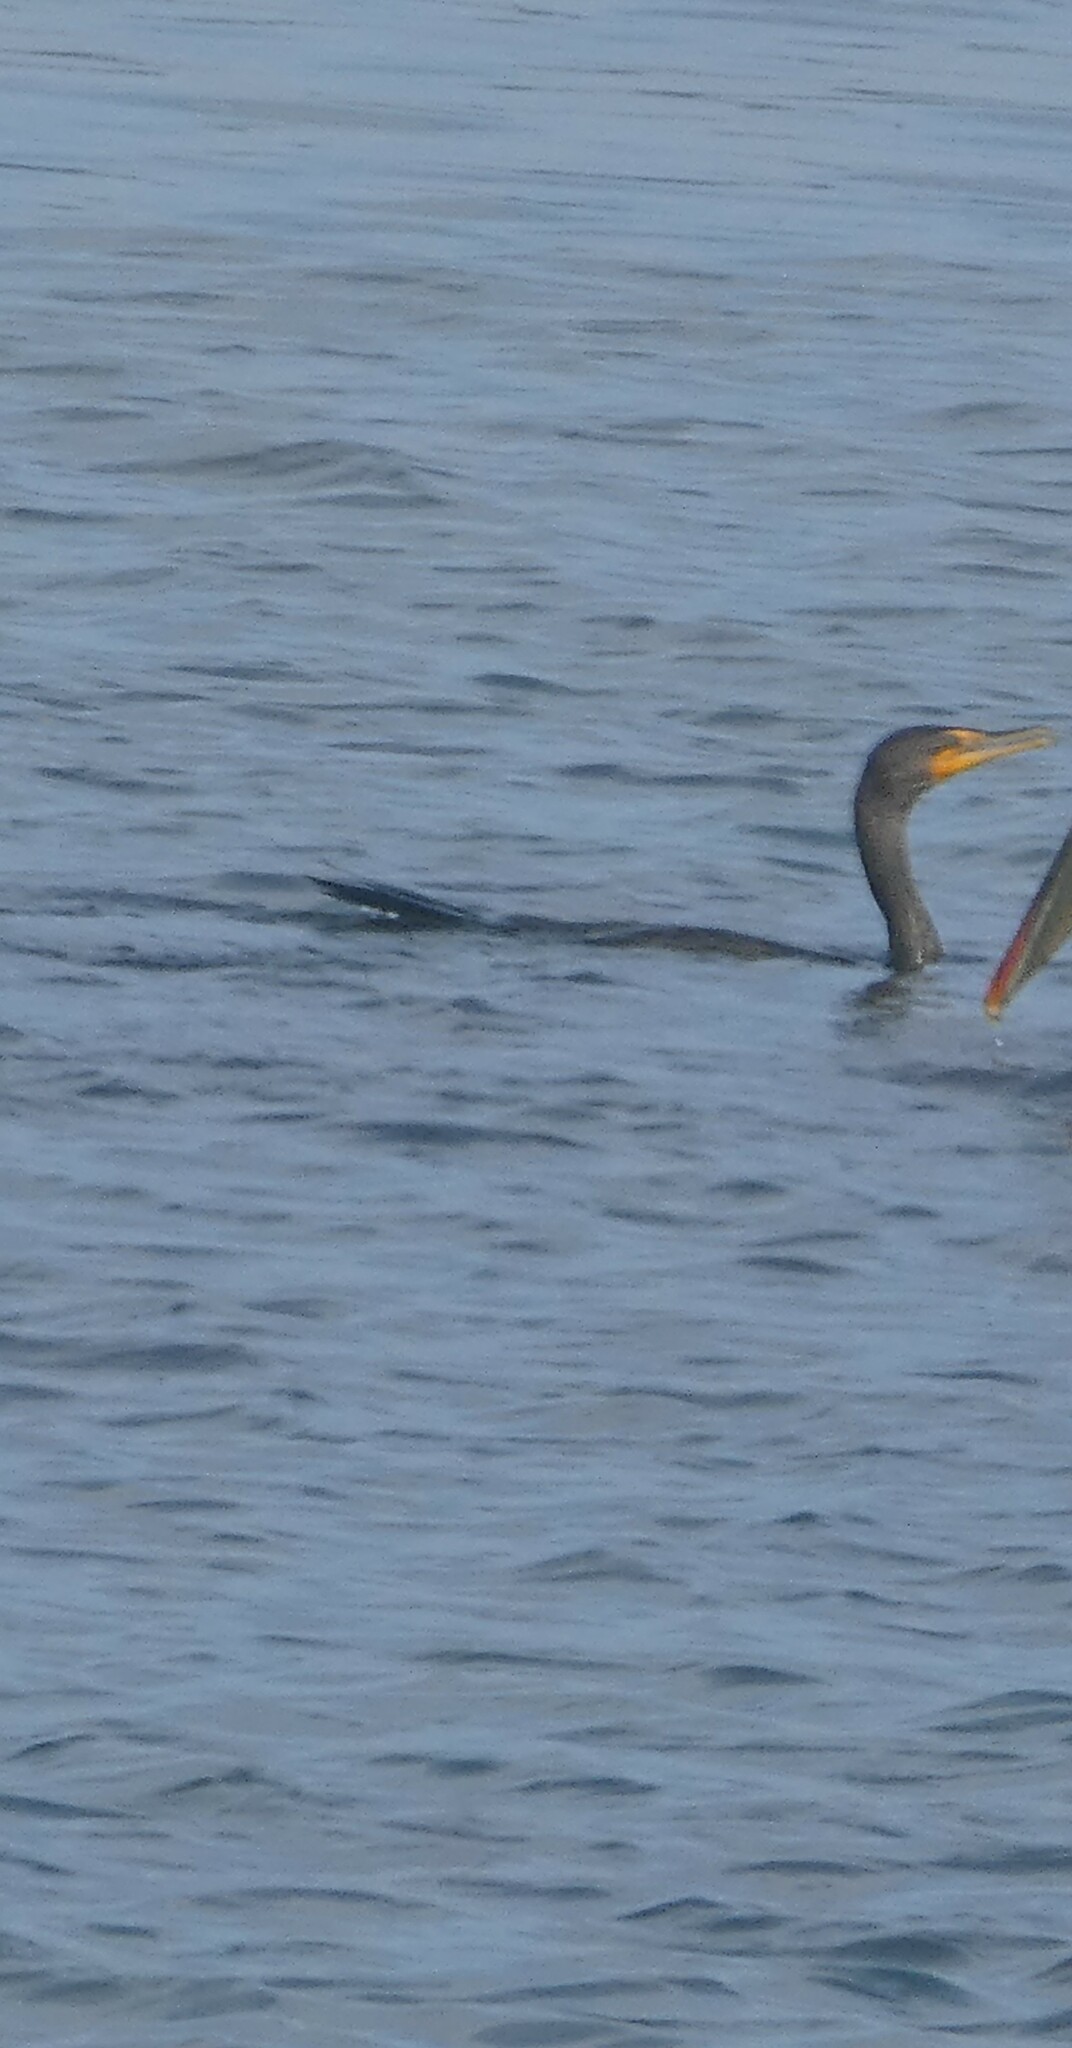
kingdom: Animalia
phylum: Chordata
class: Aves
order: Suliformes
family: Phalacrocoracidae
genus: Phalacrocorax
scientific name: Phalacrocorax auritus
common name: Double-crested cormorant
